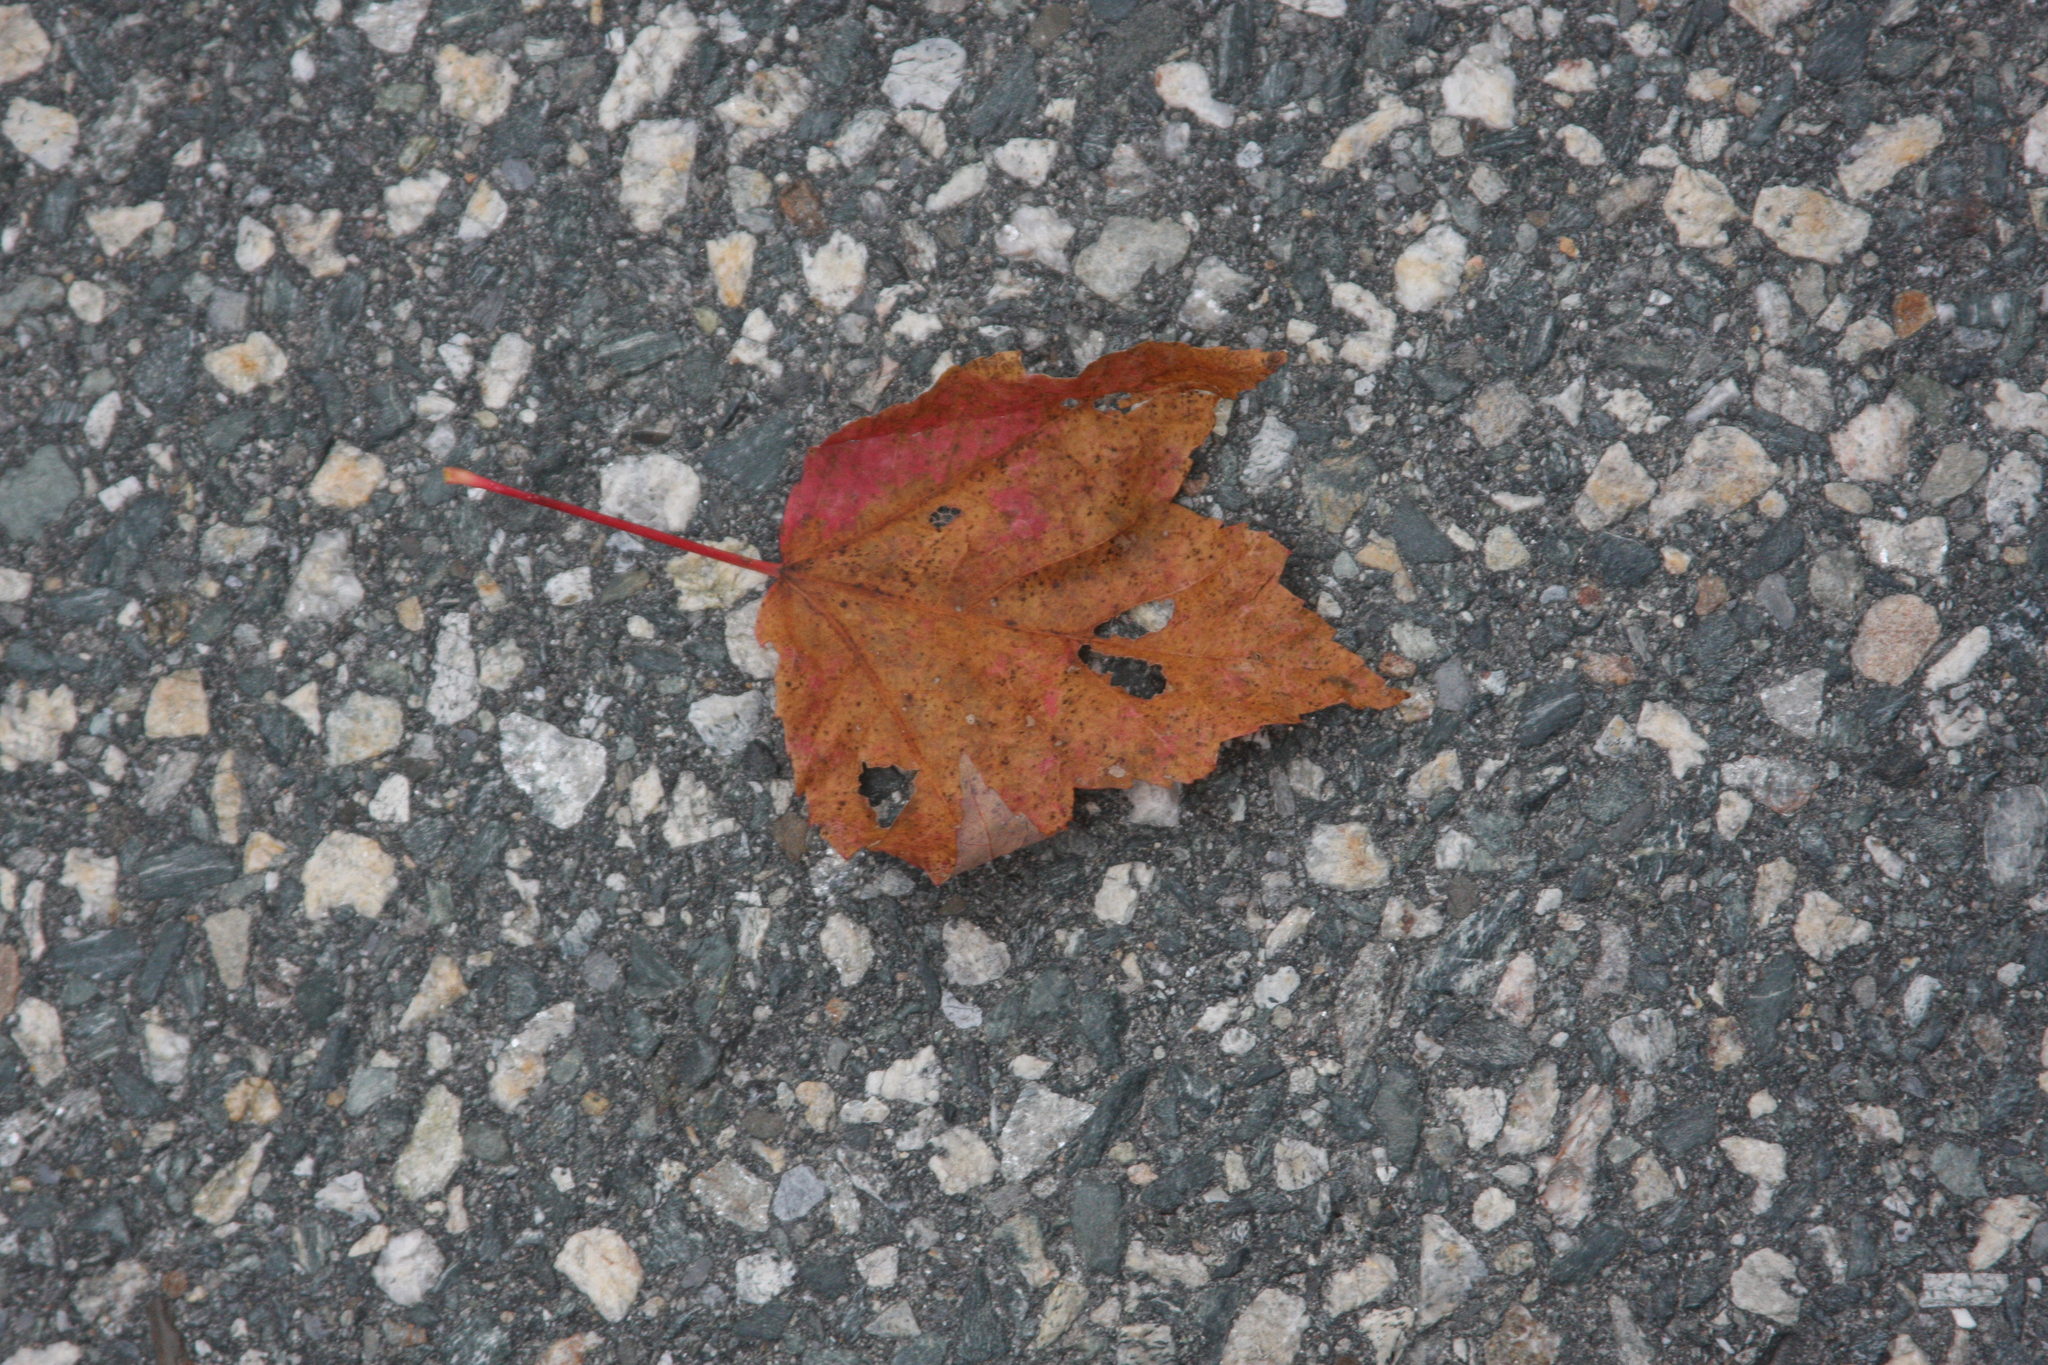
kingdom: Plantae
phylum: Tracheophyta
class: Magnoliopsida
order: Sapindales
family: Sapindaceae
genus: Acer
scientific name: Acer rubrum
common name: Red maple
